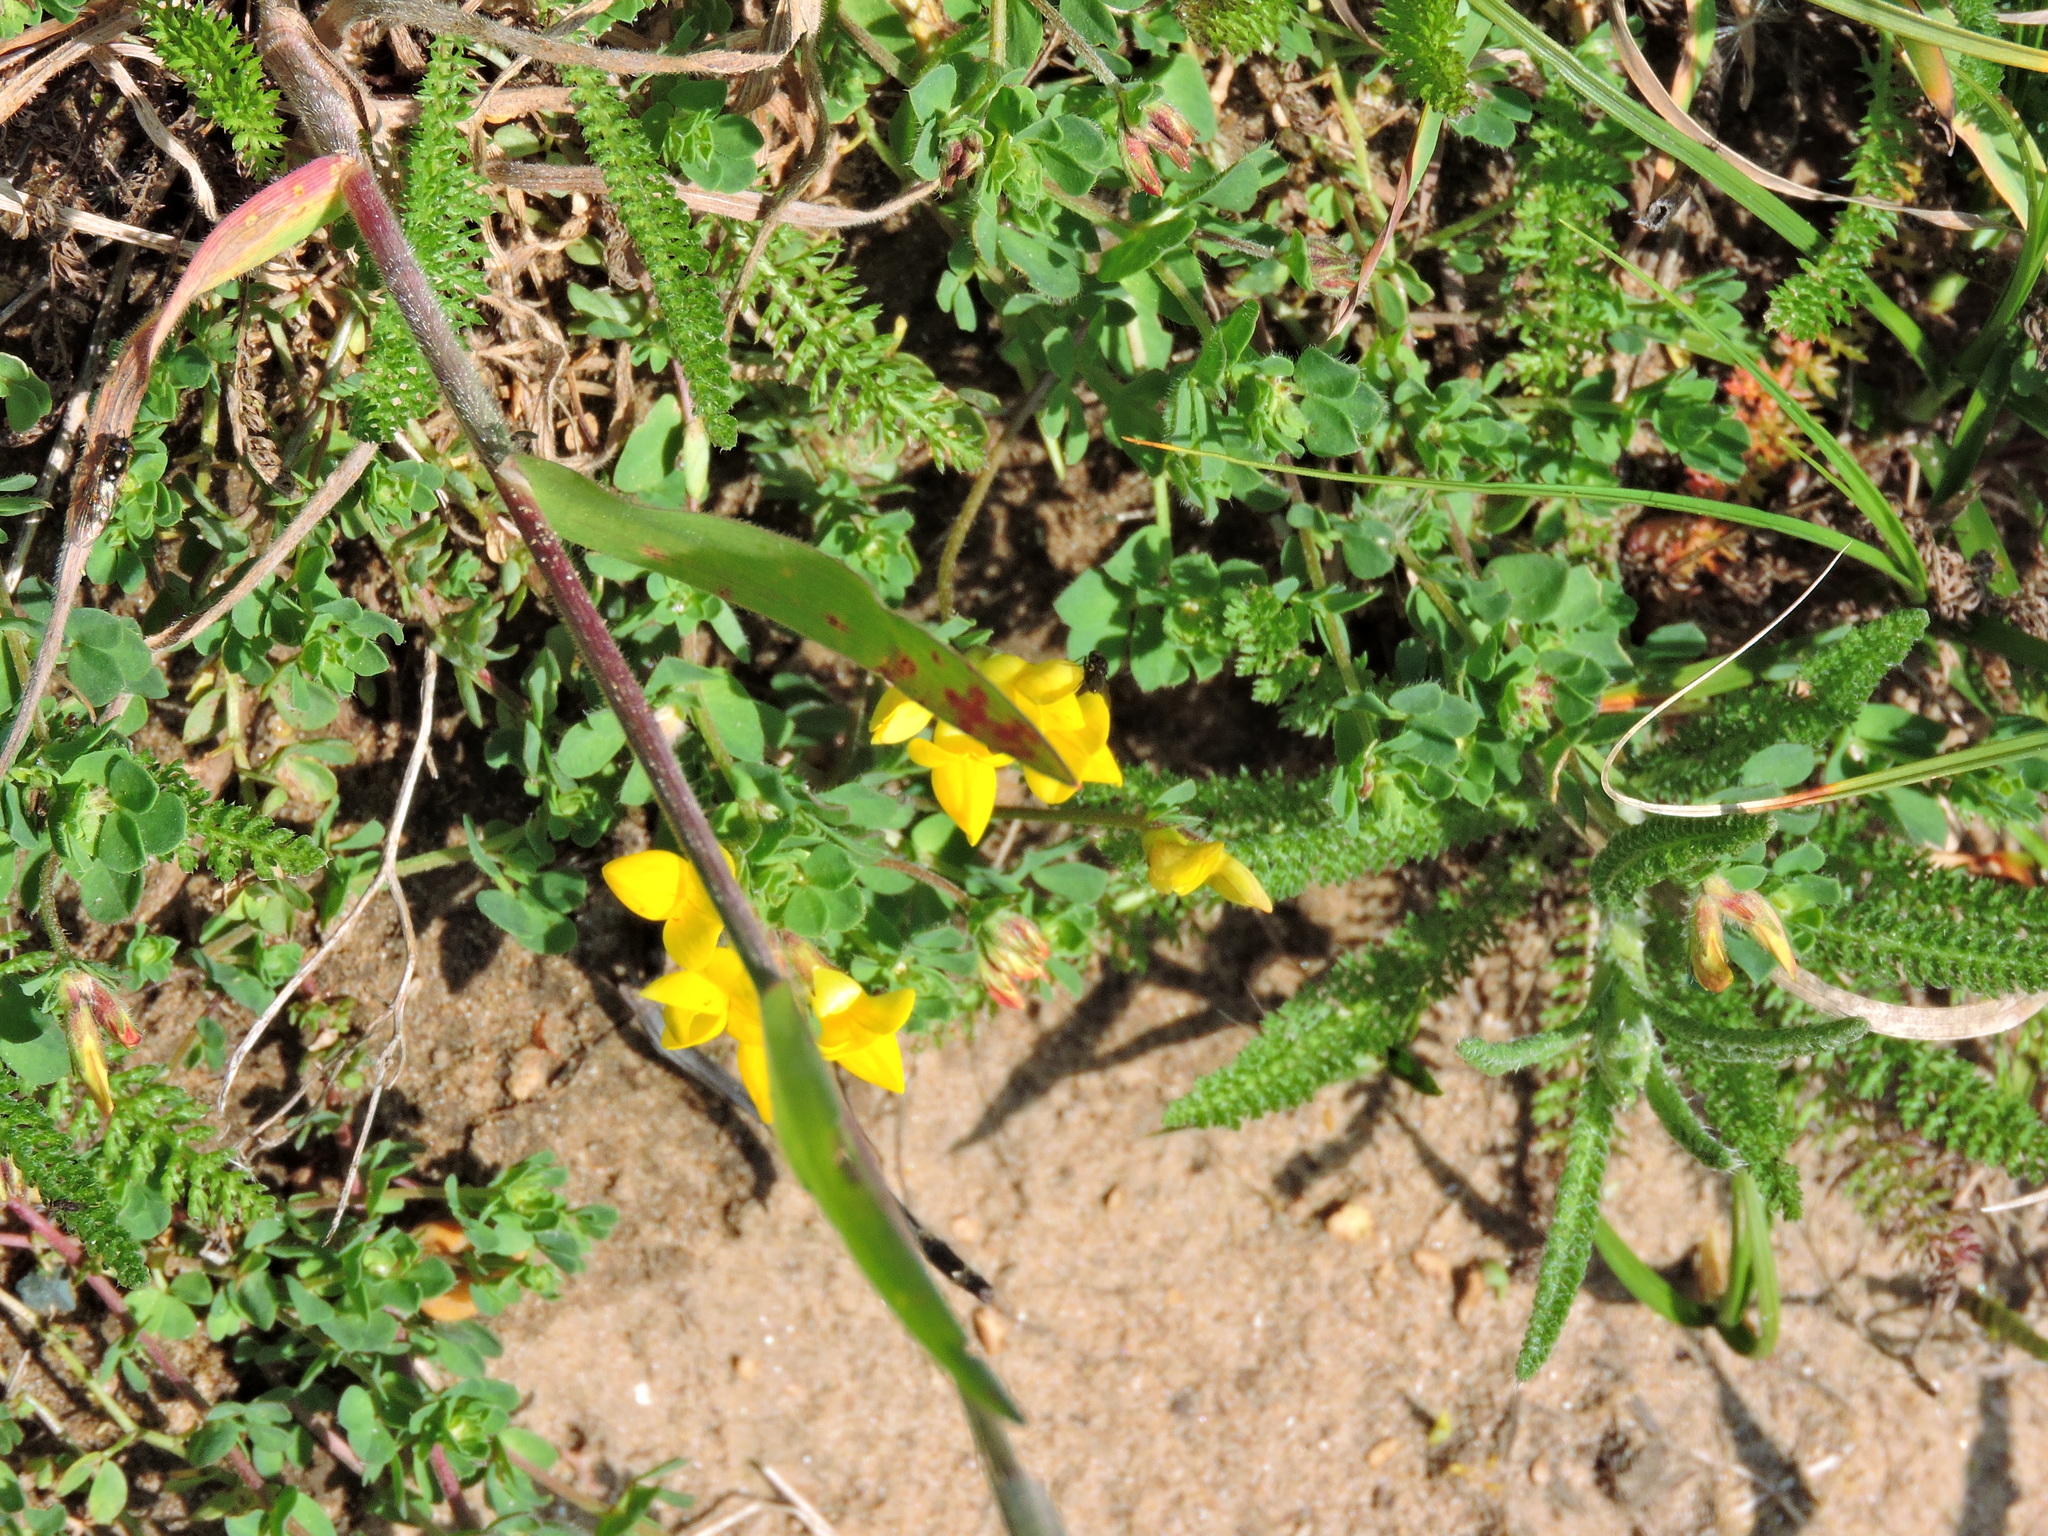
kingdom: Plantae
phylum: Tracheophyta
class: Magnoliopsida
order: Fabales
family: Fabaceae
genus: Lotus
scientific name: Lotus corniculatus
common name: Common bird's-foot-trefoil
